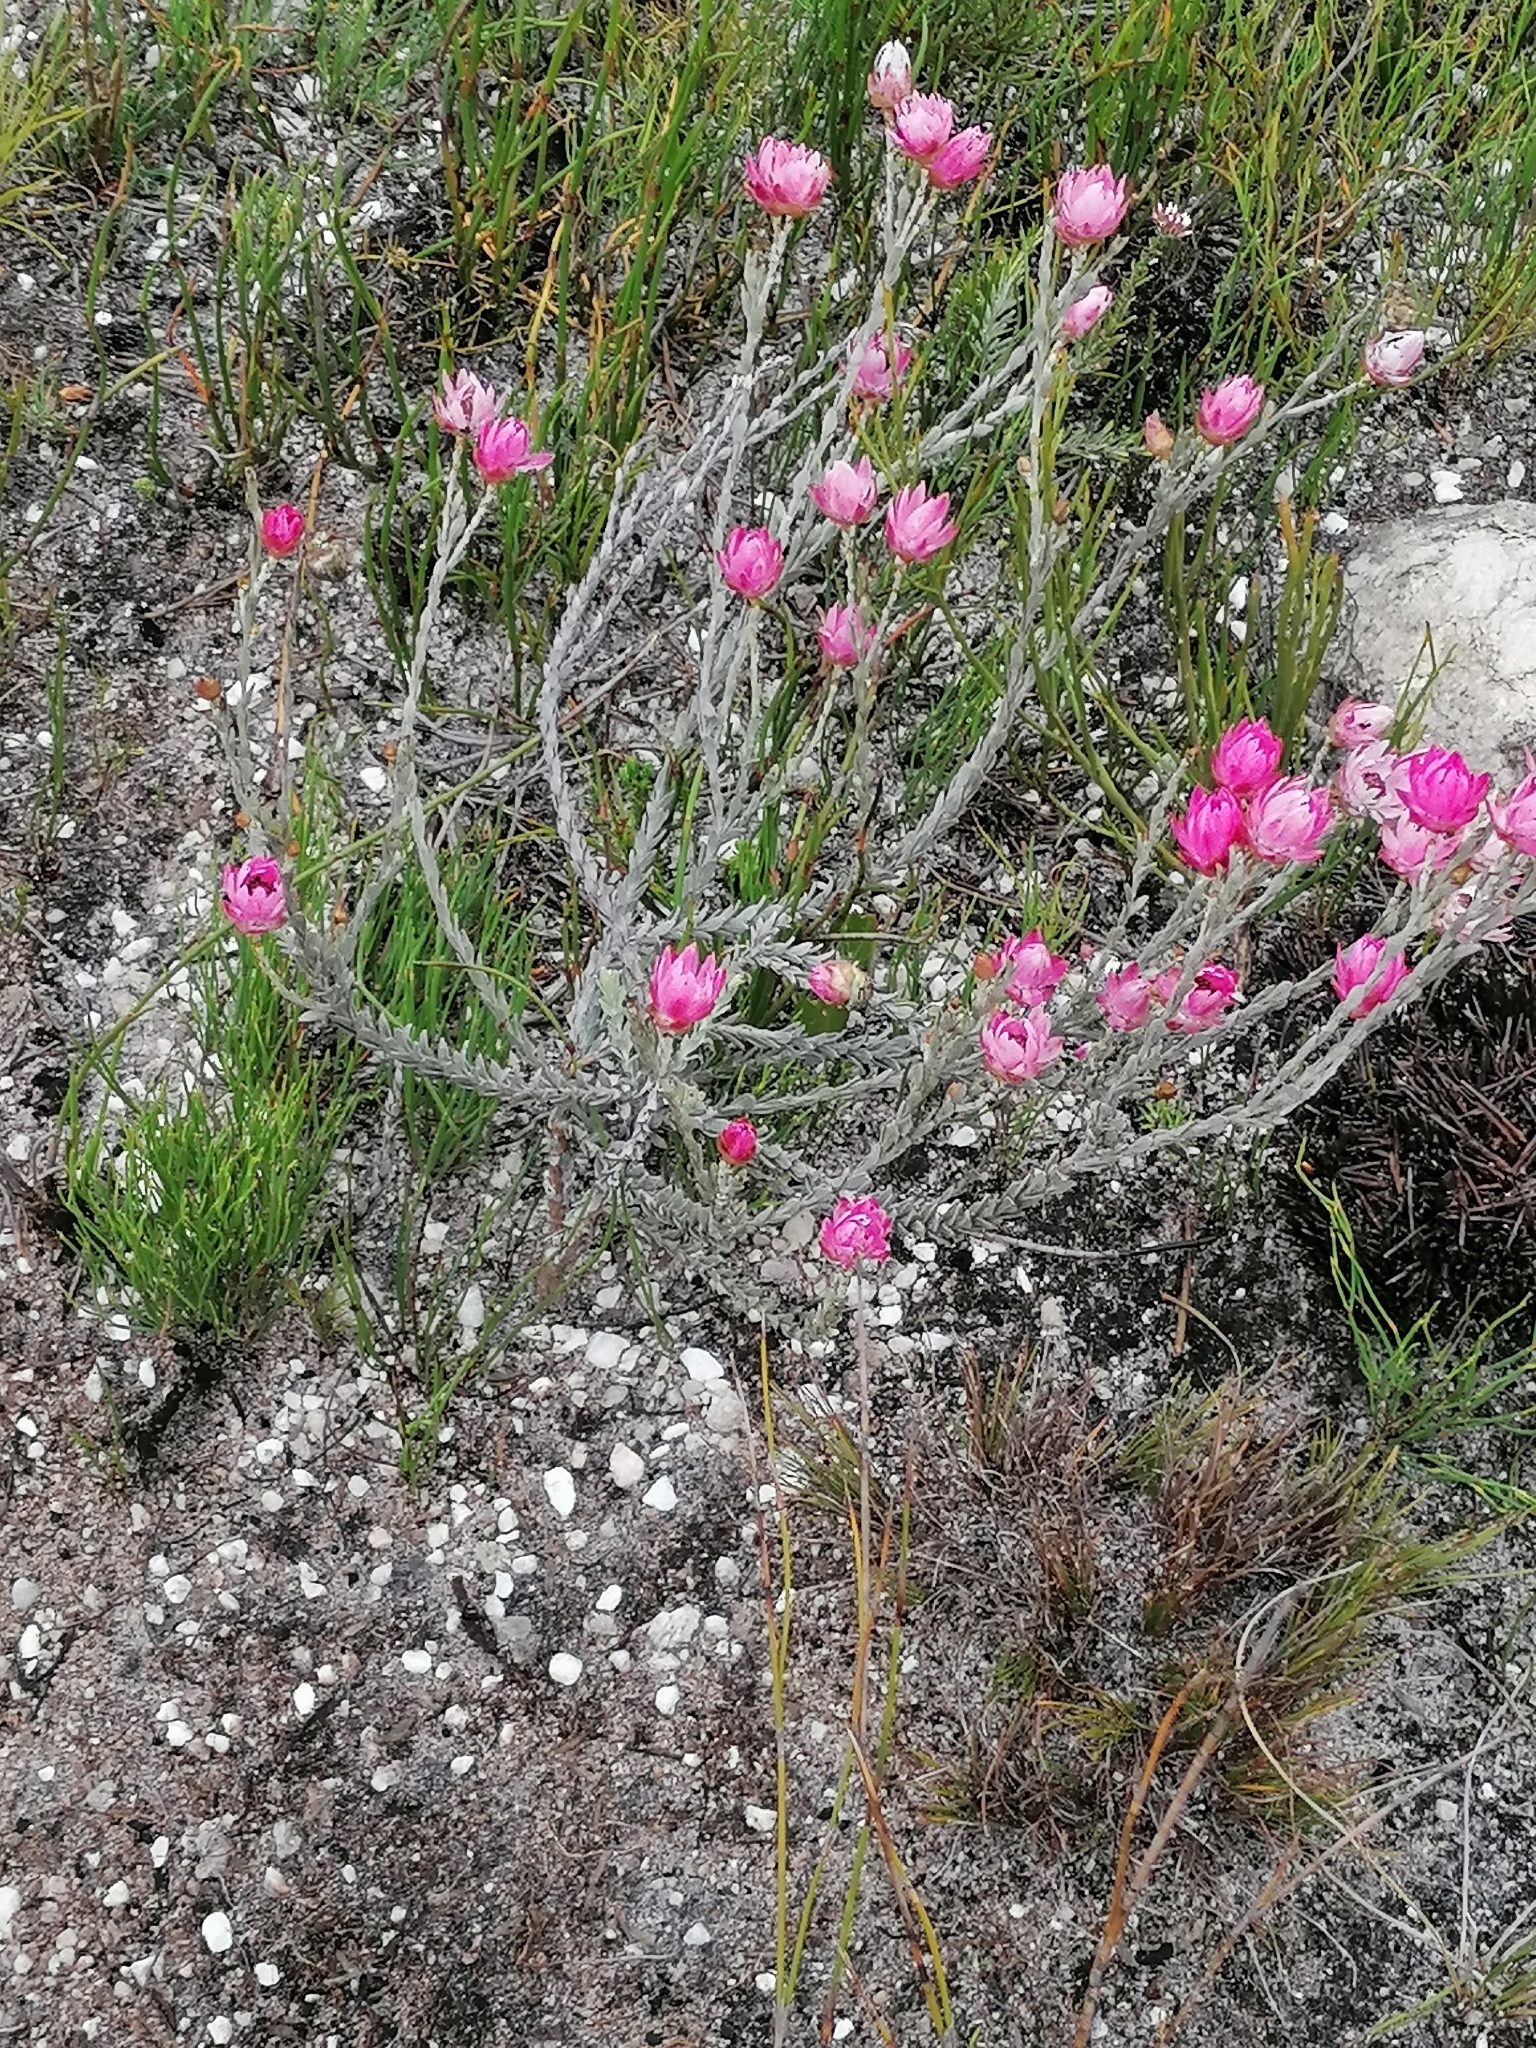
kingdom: Plantae
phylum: Tracheophyta
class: Magnoliopsida
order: Asterales
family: Asteraceae
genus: Syncarpha
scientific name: Syncarpha canescens
